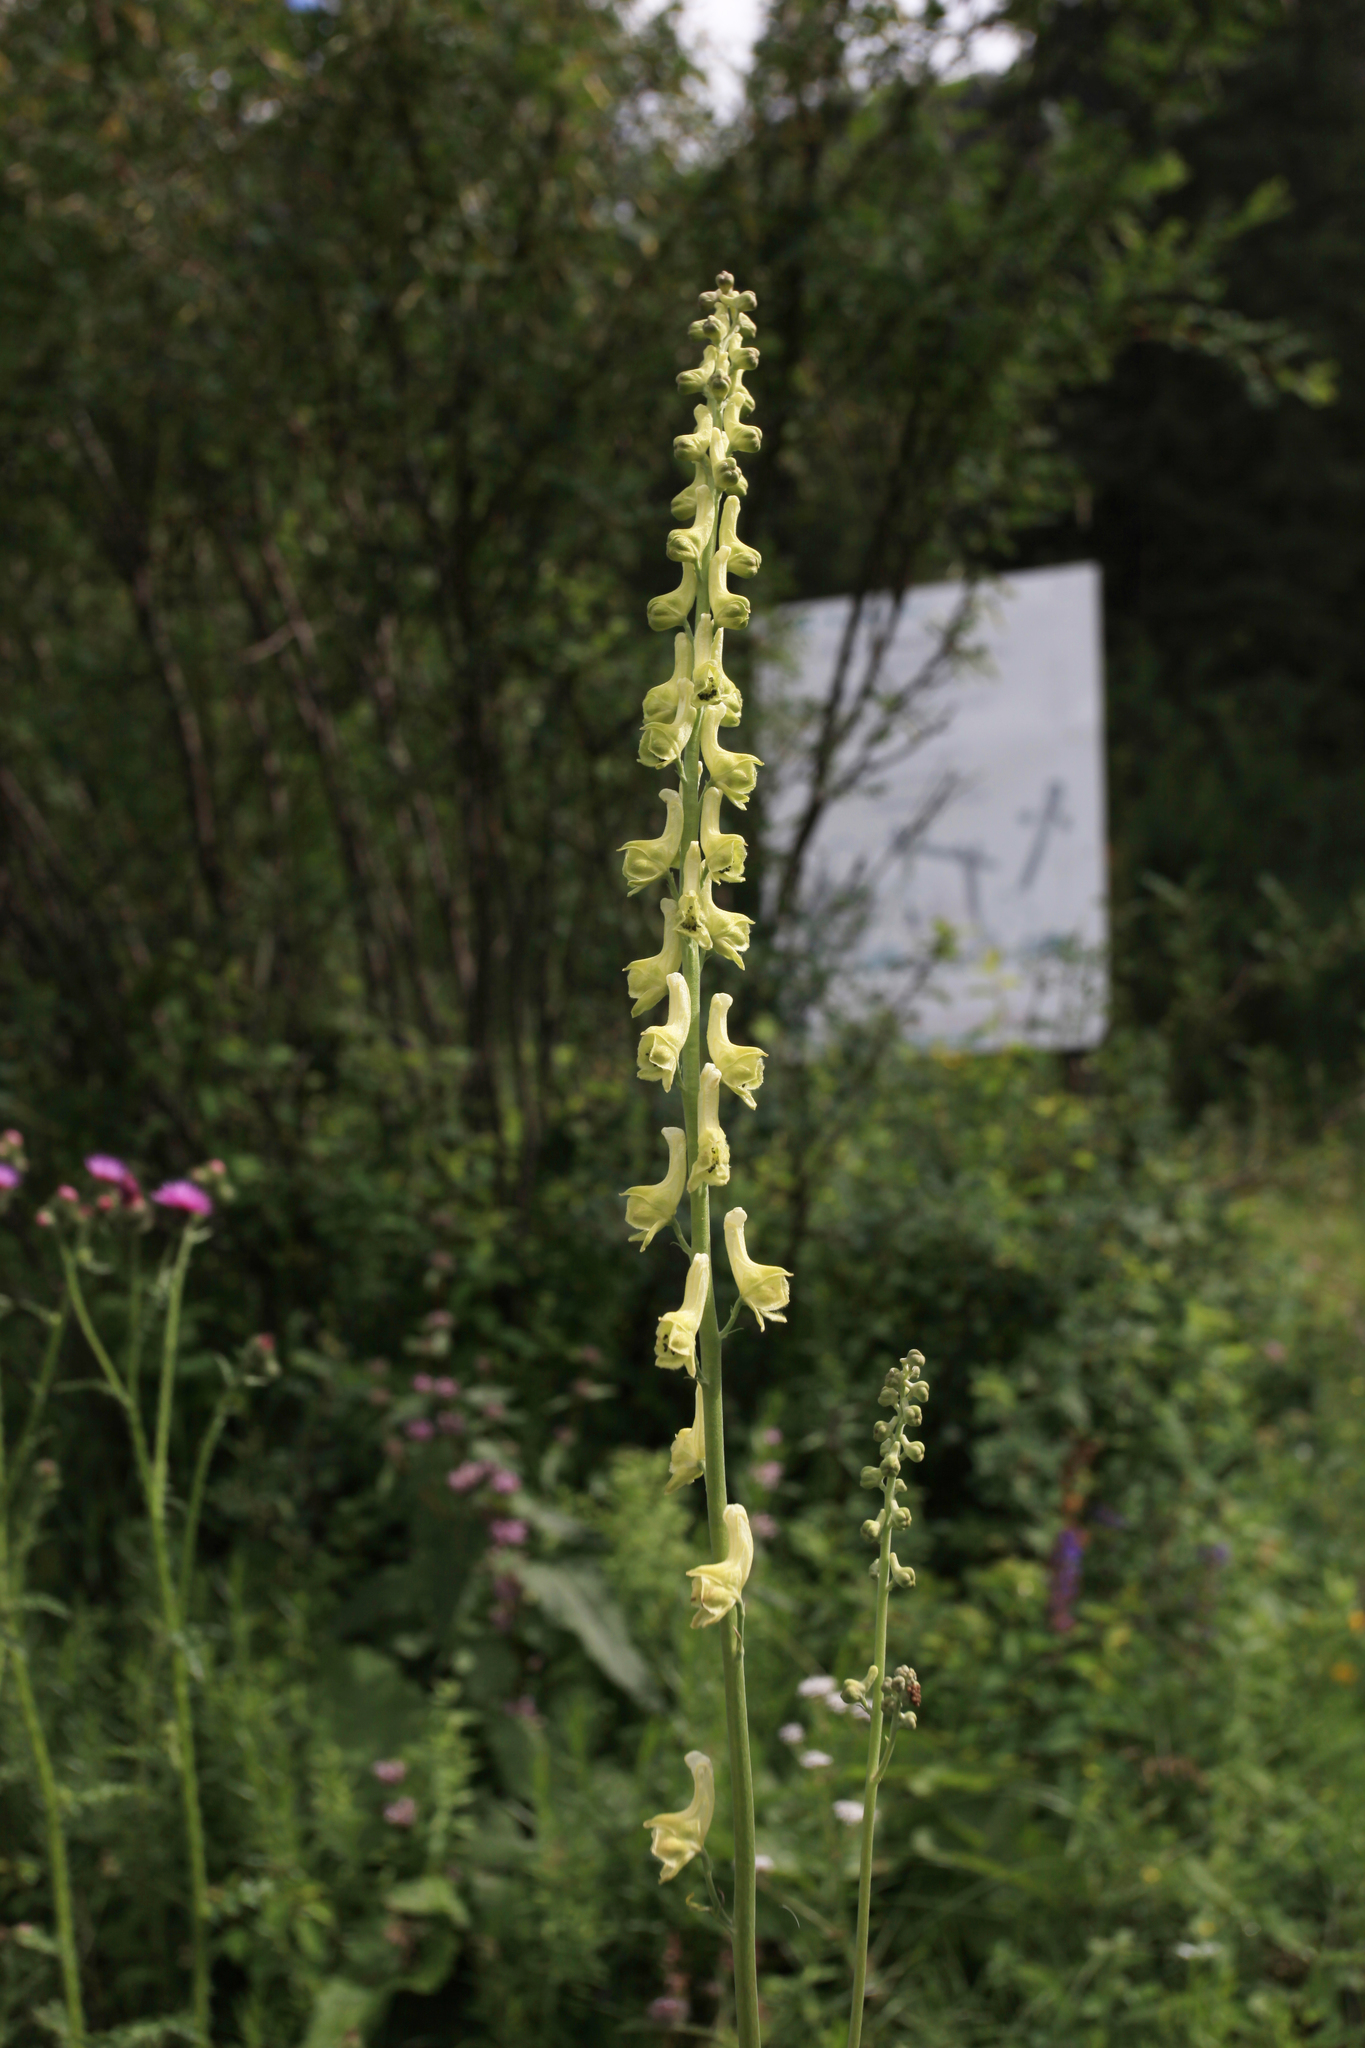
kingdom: Plantae
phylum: Tracheophyta
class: Magnoliopsida
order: Ranunculales
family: Ranunculaceae
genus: Aconitum
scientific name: Aconitum barbatum
